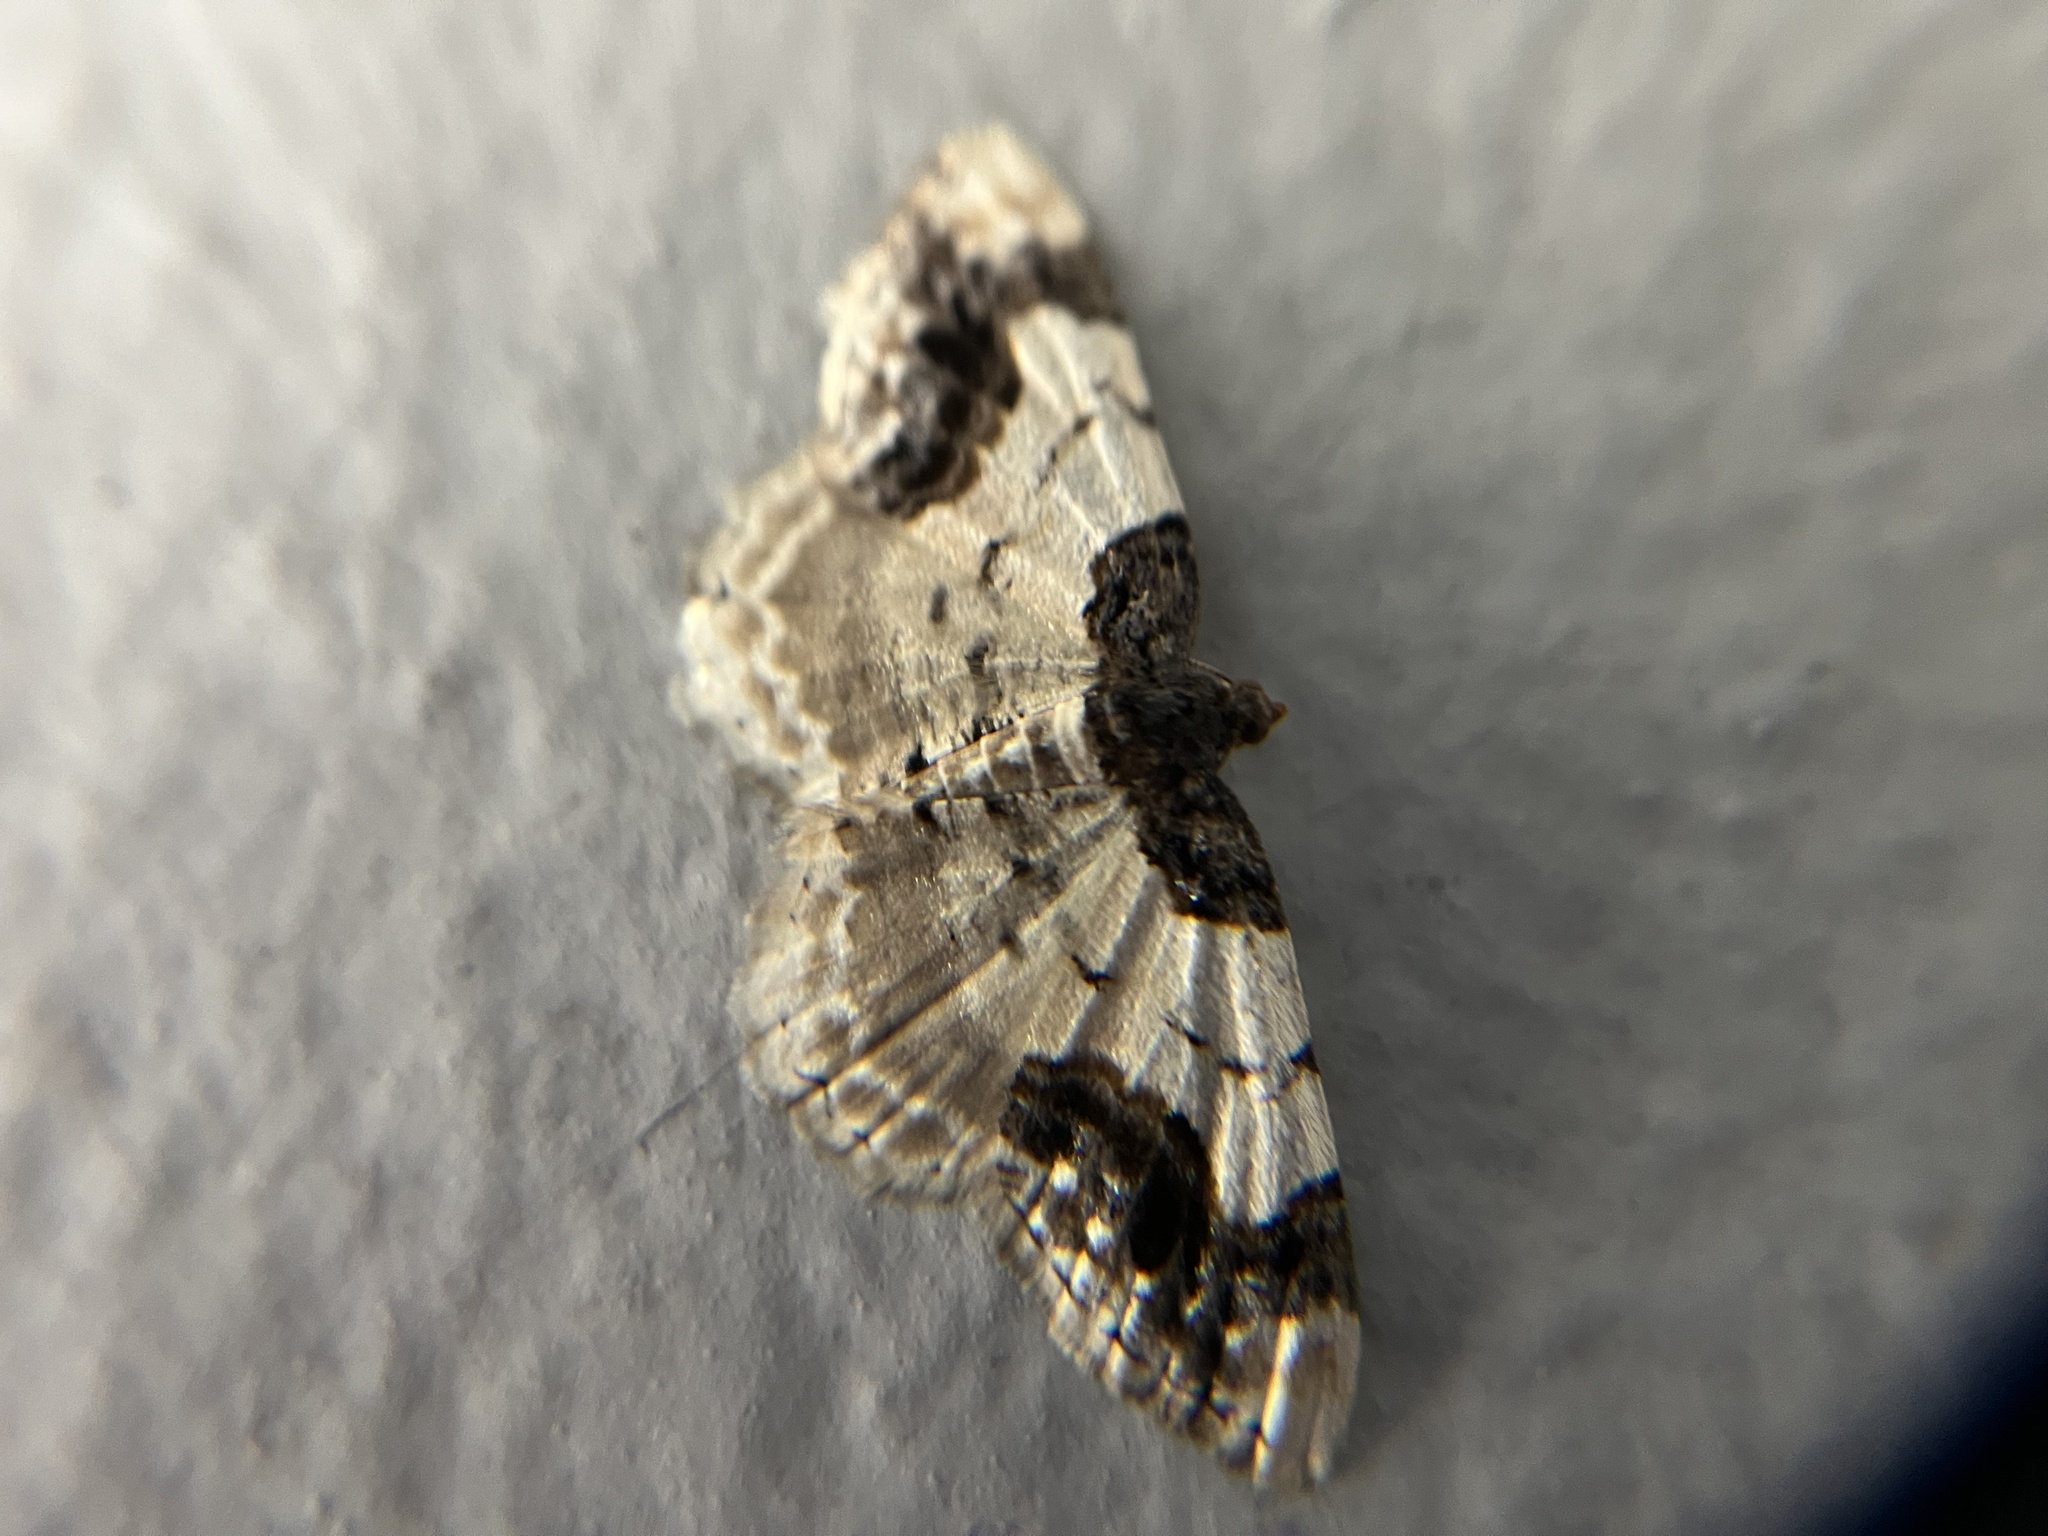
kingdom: Animalia
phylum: Arthropoda
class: Insecta
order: Lepidoptera
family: Geometridae
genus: Ligdia
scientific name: Ligdia adustata
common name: Scorched carpet
